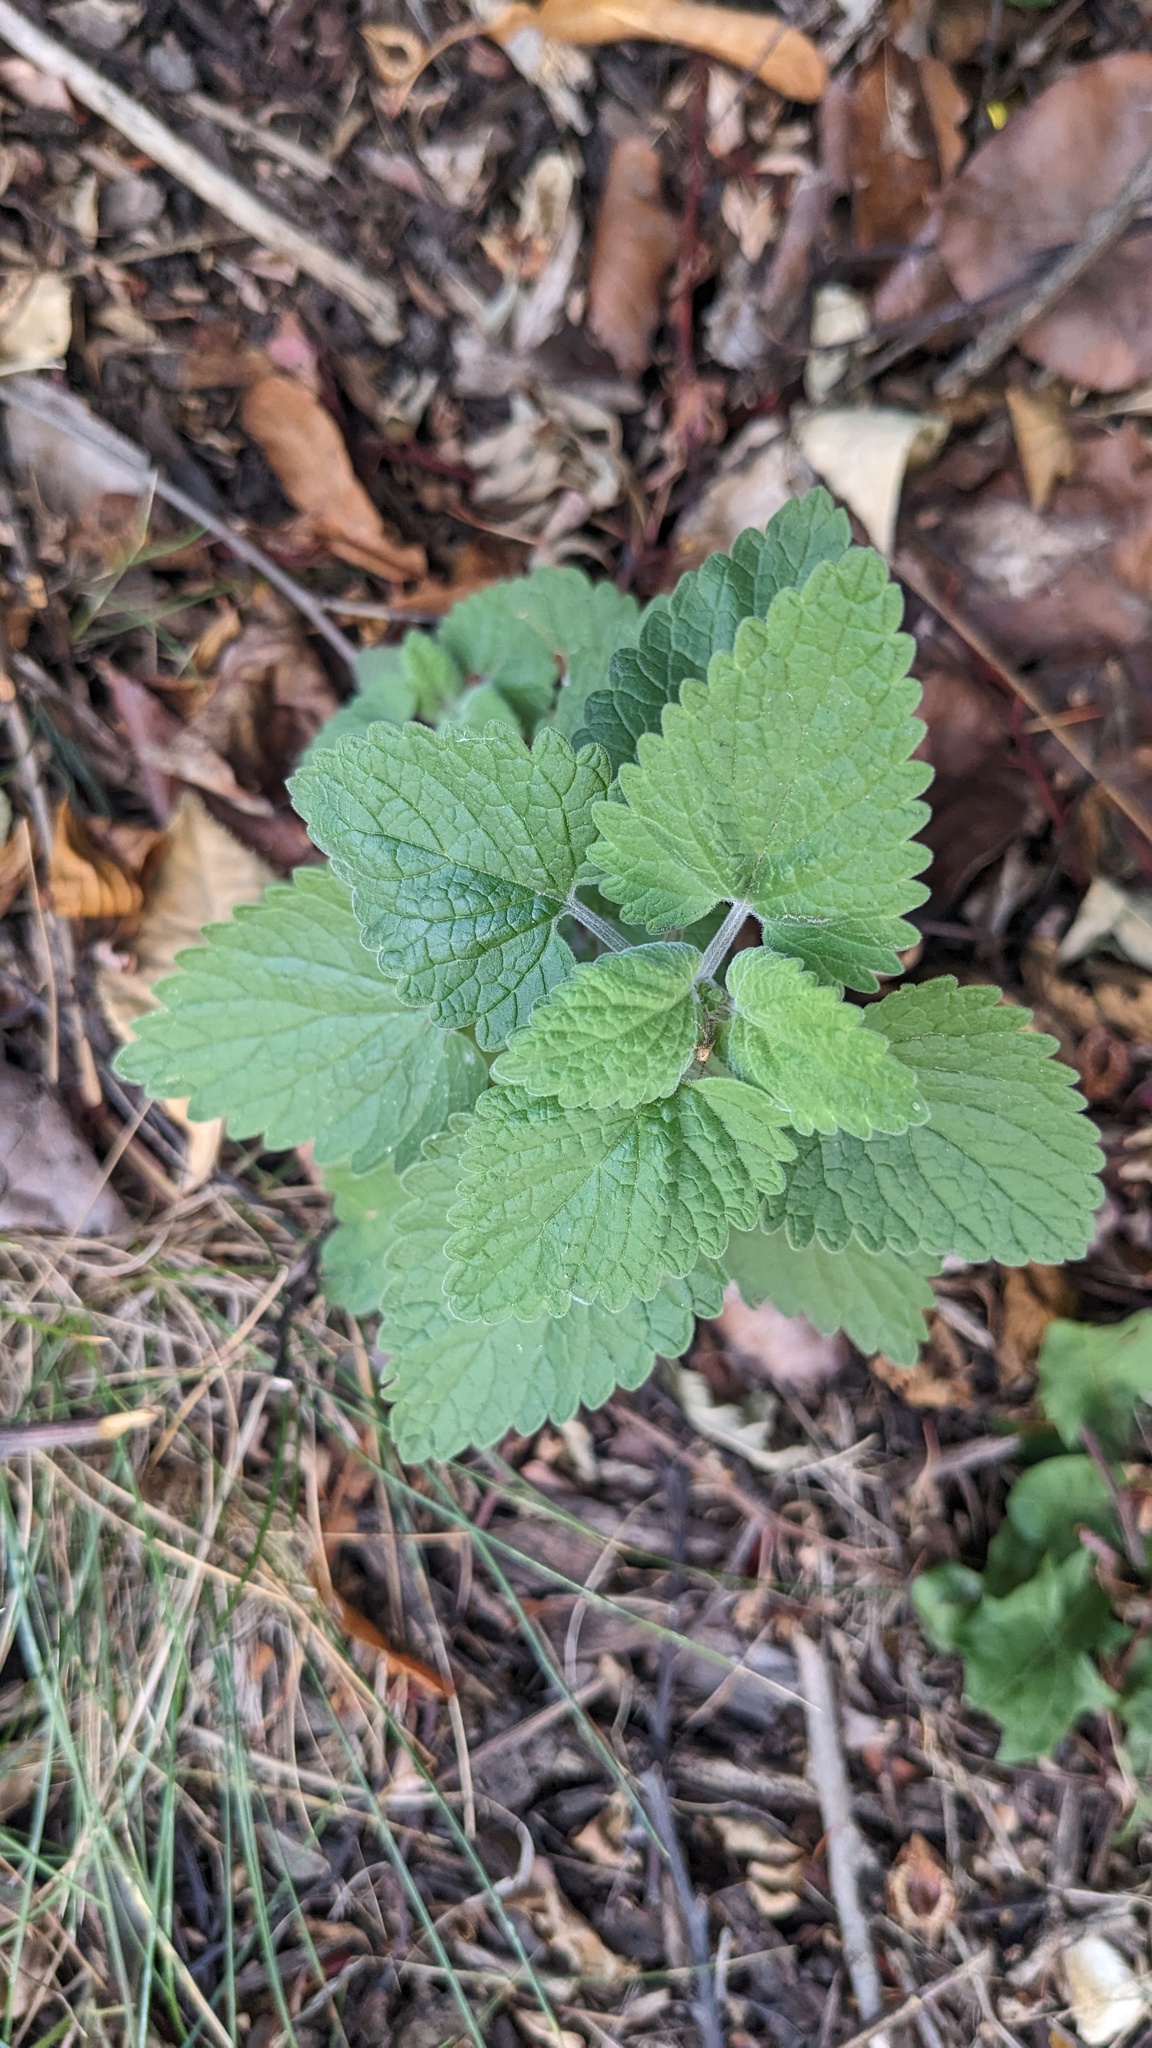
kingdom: Plantae
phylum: Tracheophyta
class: Magnoliopsida
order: Lamiales
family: Lamiaceae
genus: Nepeta
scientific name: Nepeta cataria
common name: Catnip
